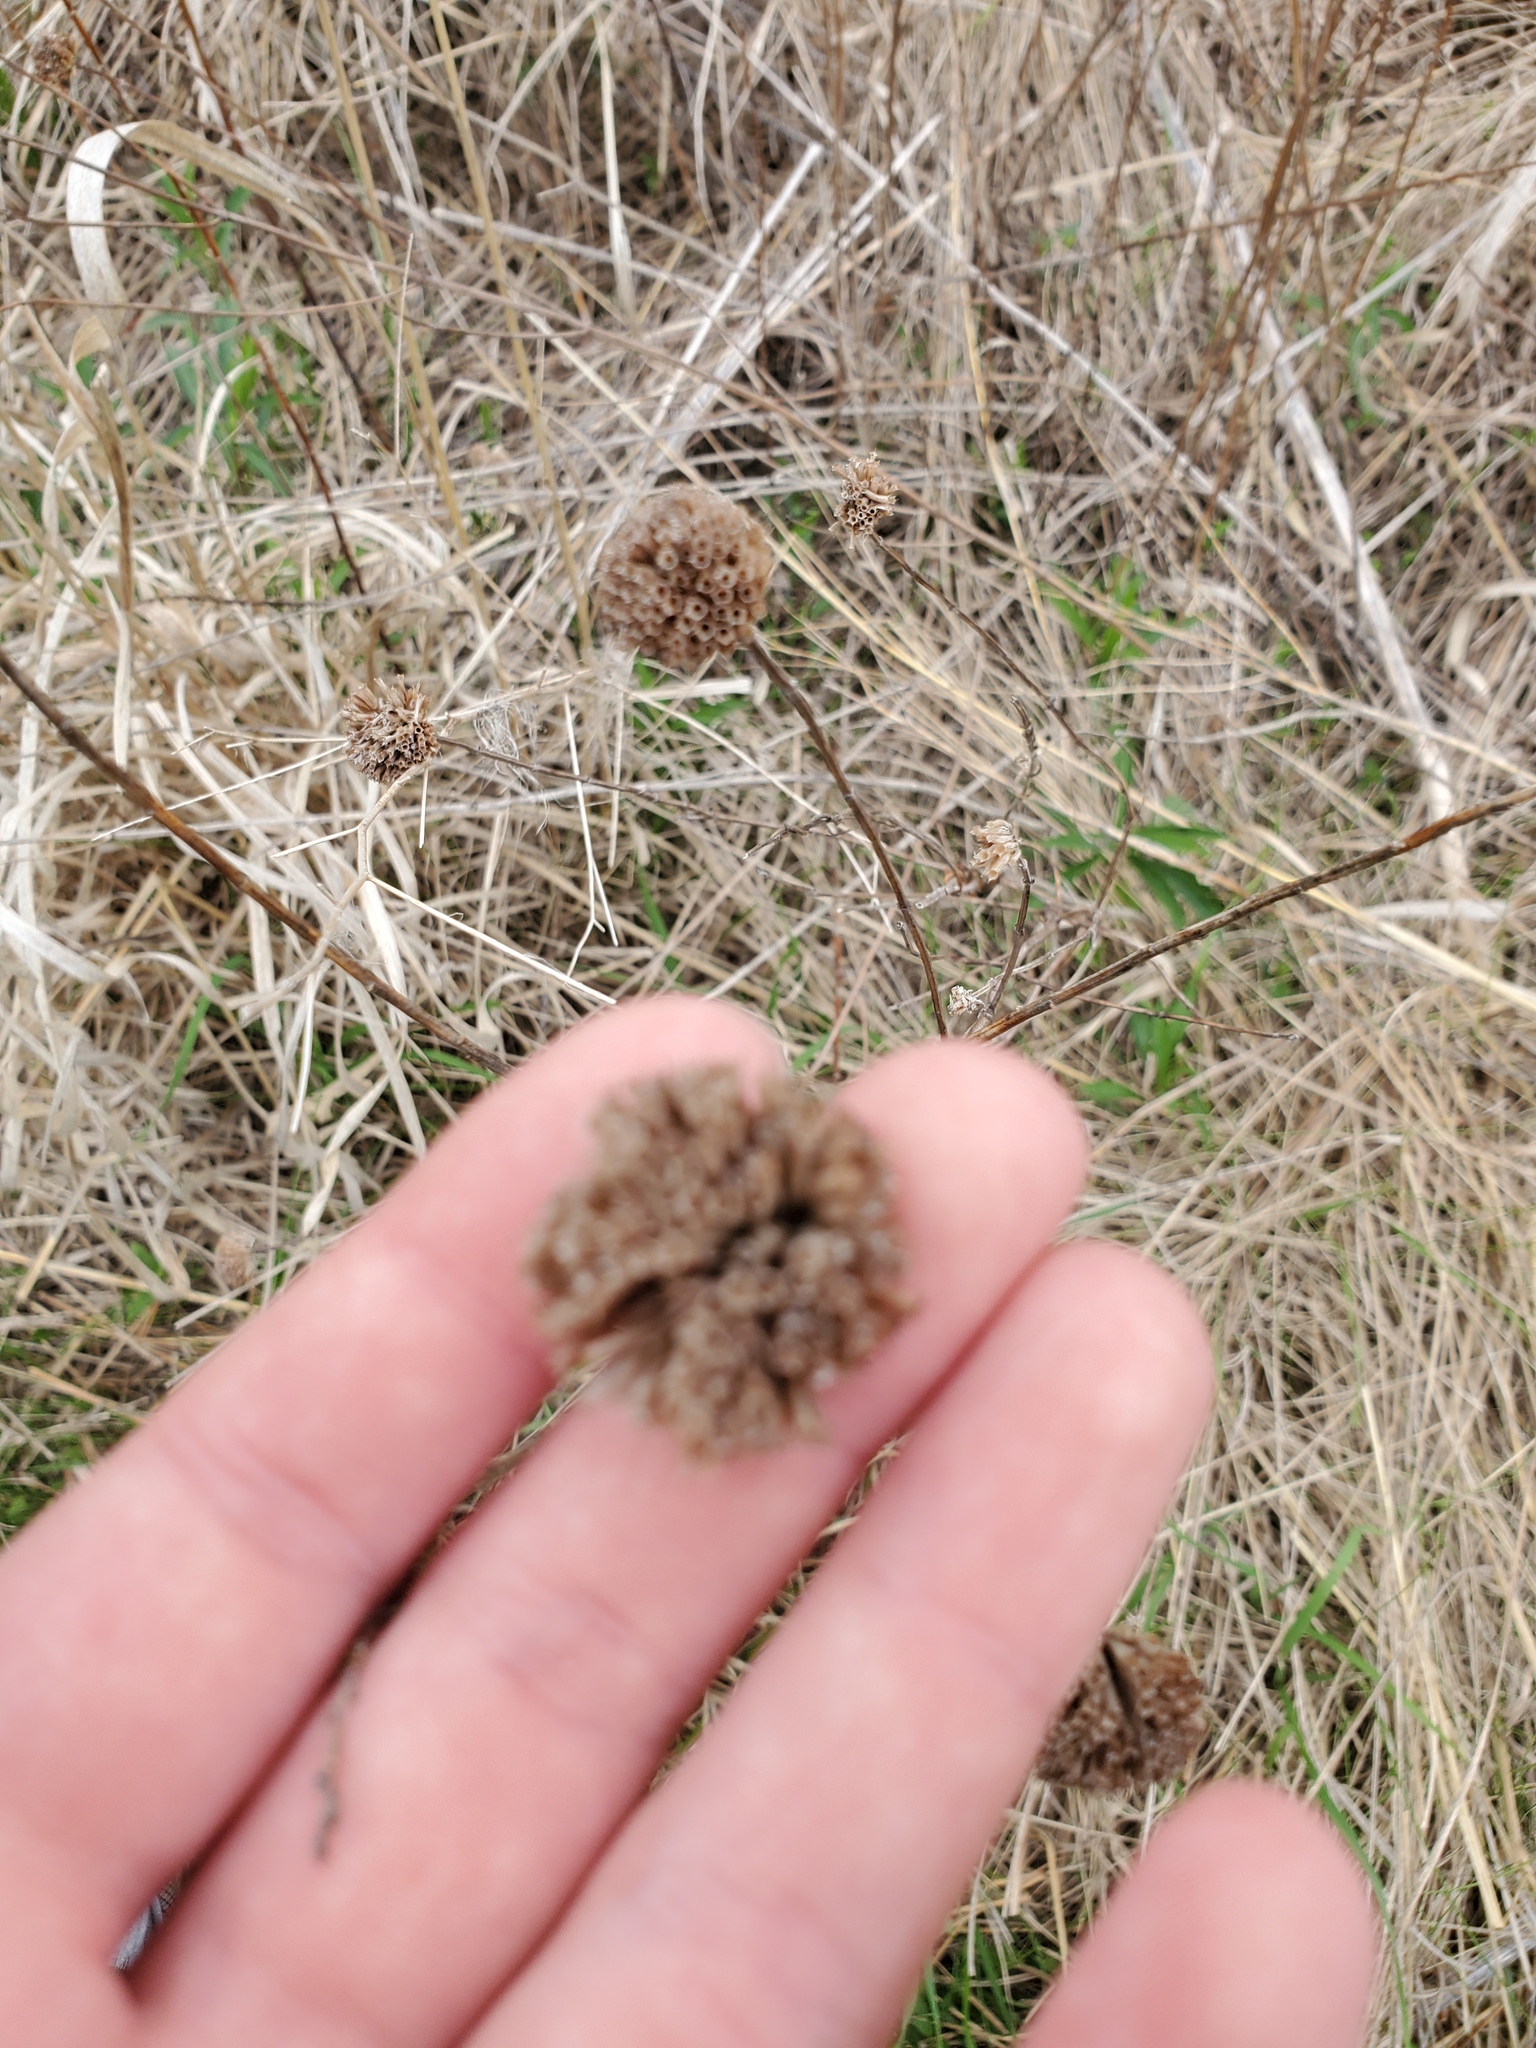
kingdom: Plantae
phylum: Tracheophyta
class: Magnoliopsida
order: Lamiales
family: Lamiaceae
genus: Monarda
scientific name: Monarda fistulosa
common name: Purple beebalm
